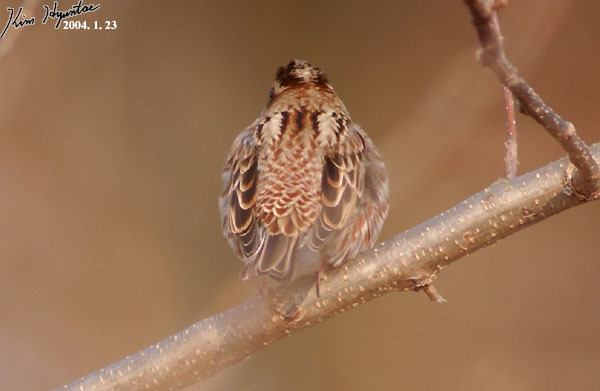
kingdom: Animalia
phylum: Chordata
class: Aves
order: Passeriformes
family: Emberizidae
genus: Emberiza
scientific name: Emberiza rustica
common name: Rustic bunting
